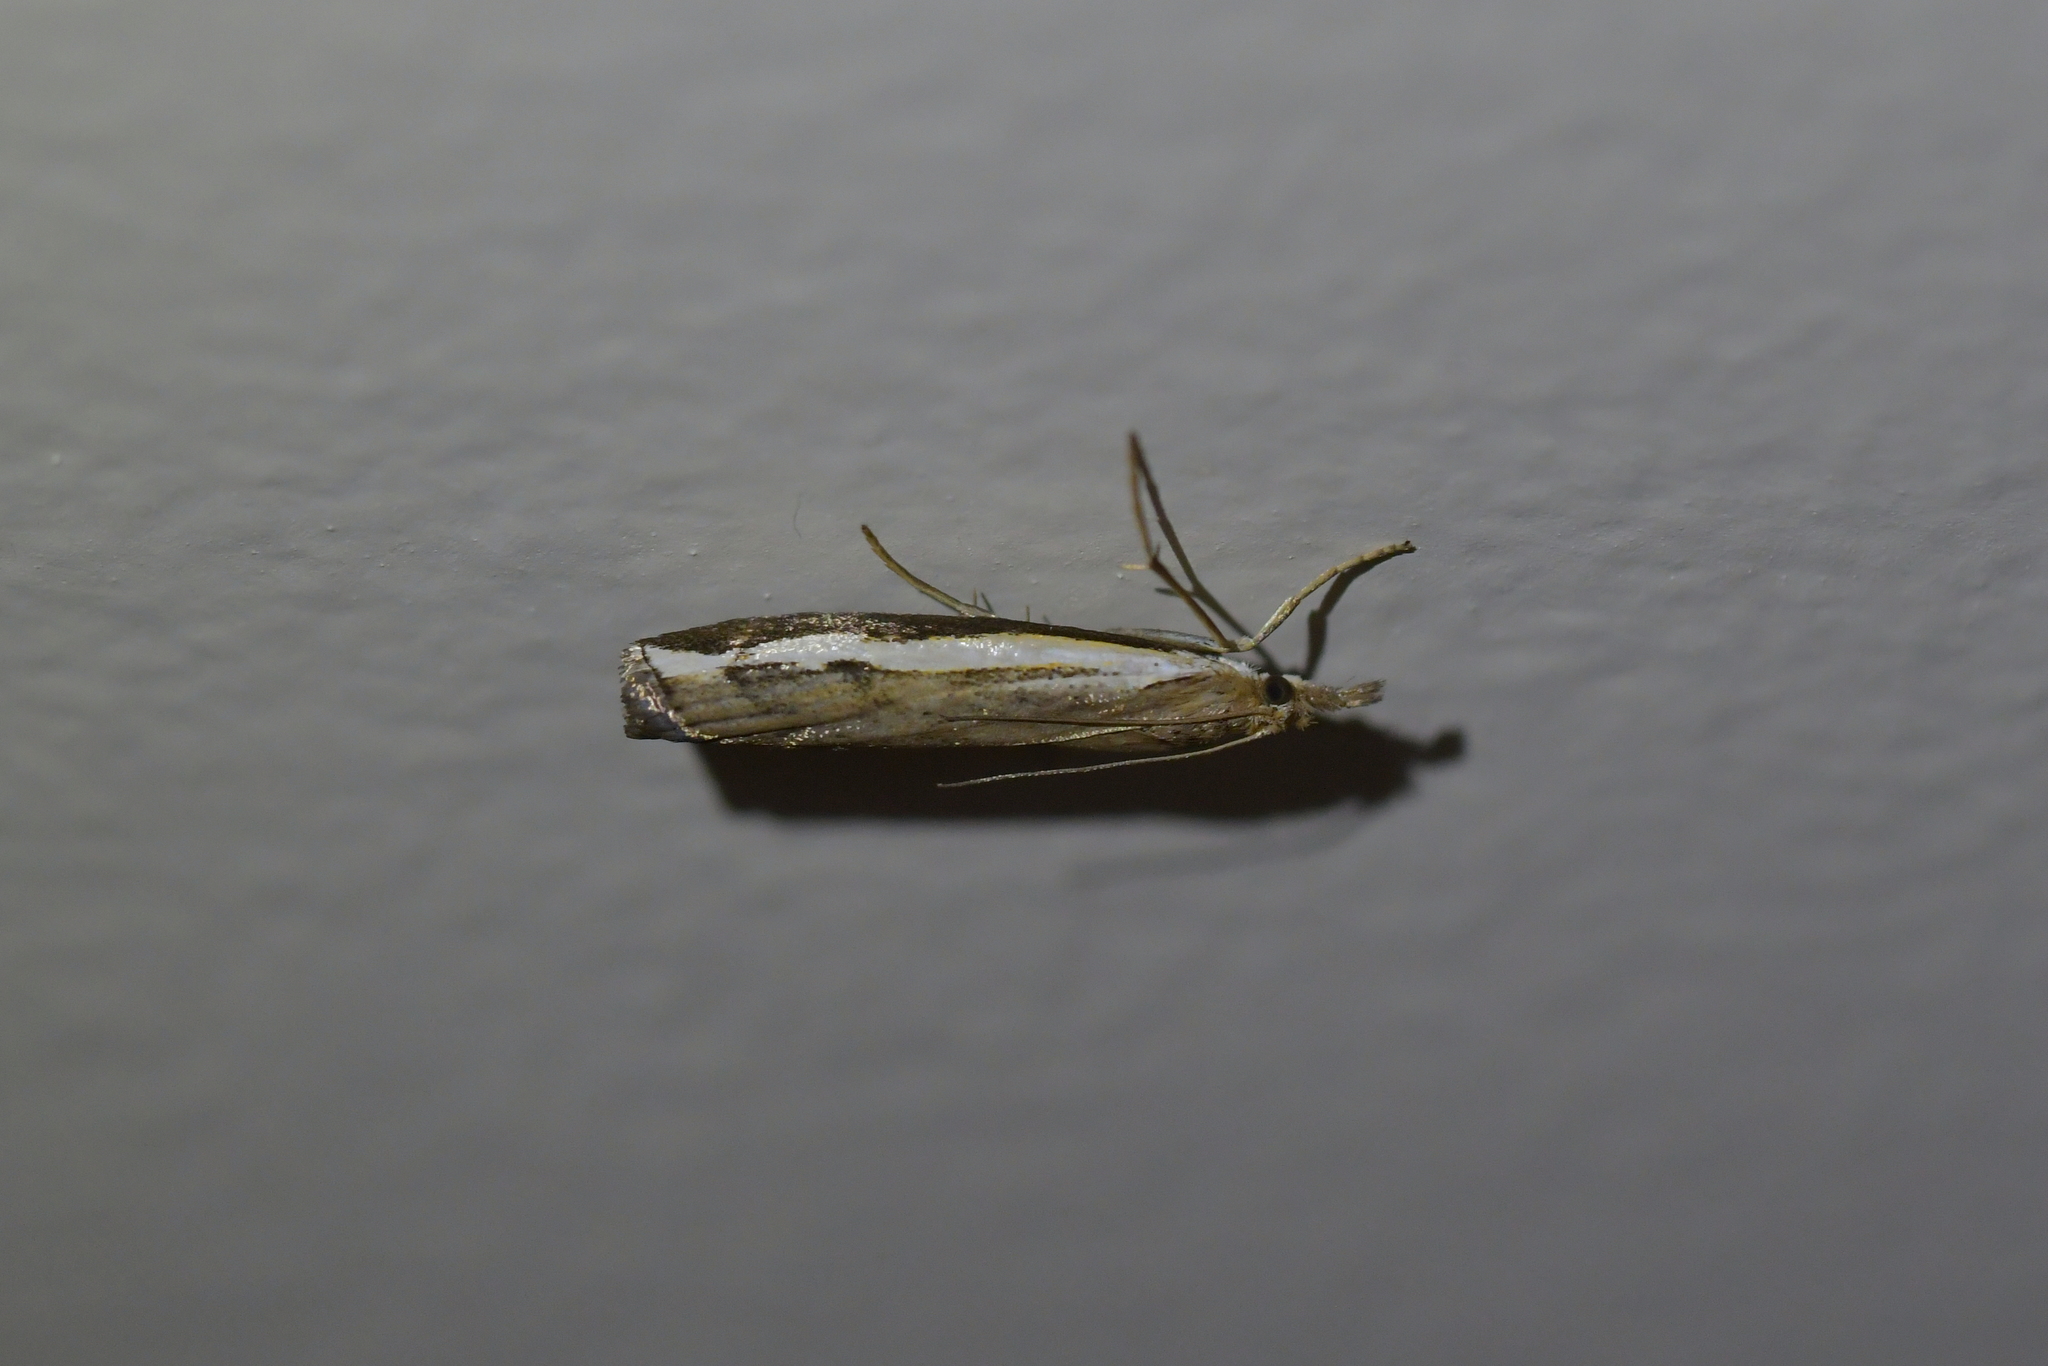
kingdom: Animalia
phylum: Arthropoda
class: Insecta
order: Lepidoptera
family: Crambidae
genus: Orocrambus
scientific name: Orocrambus flexuosellus
